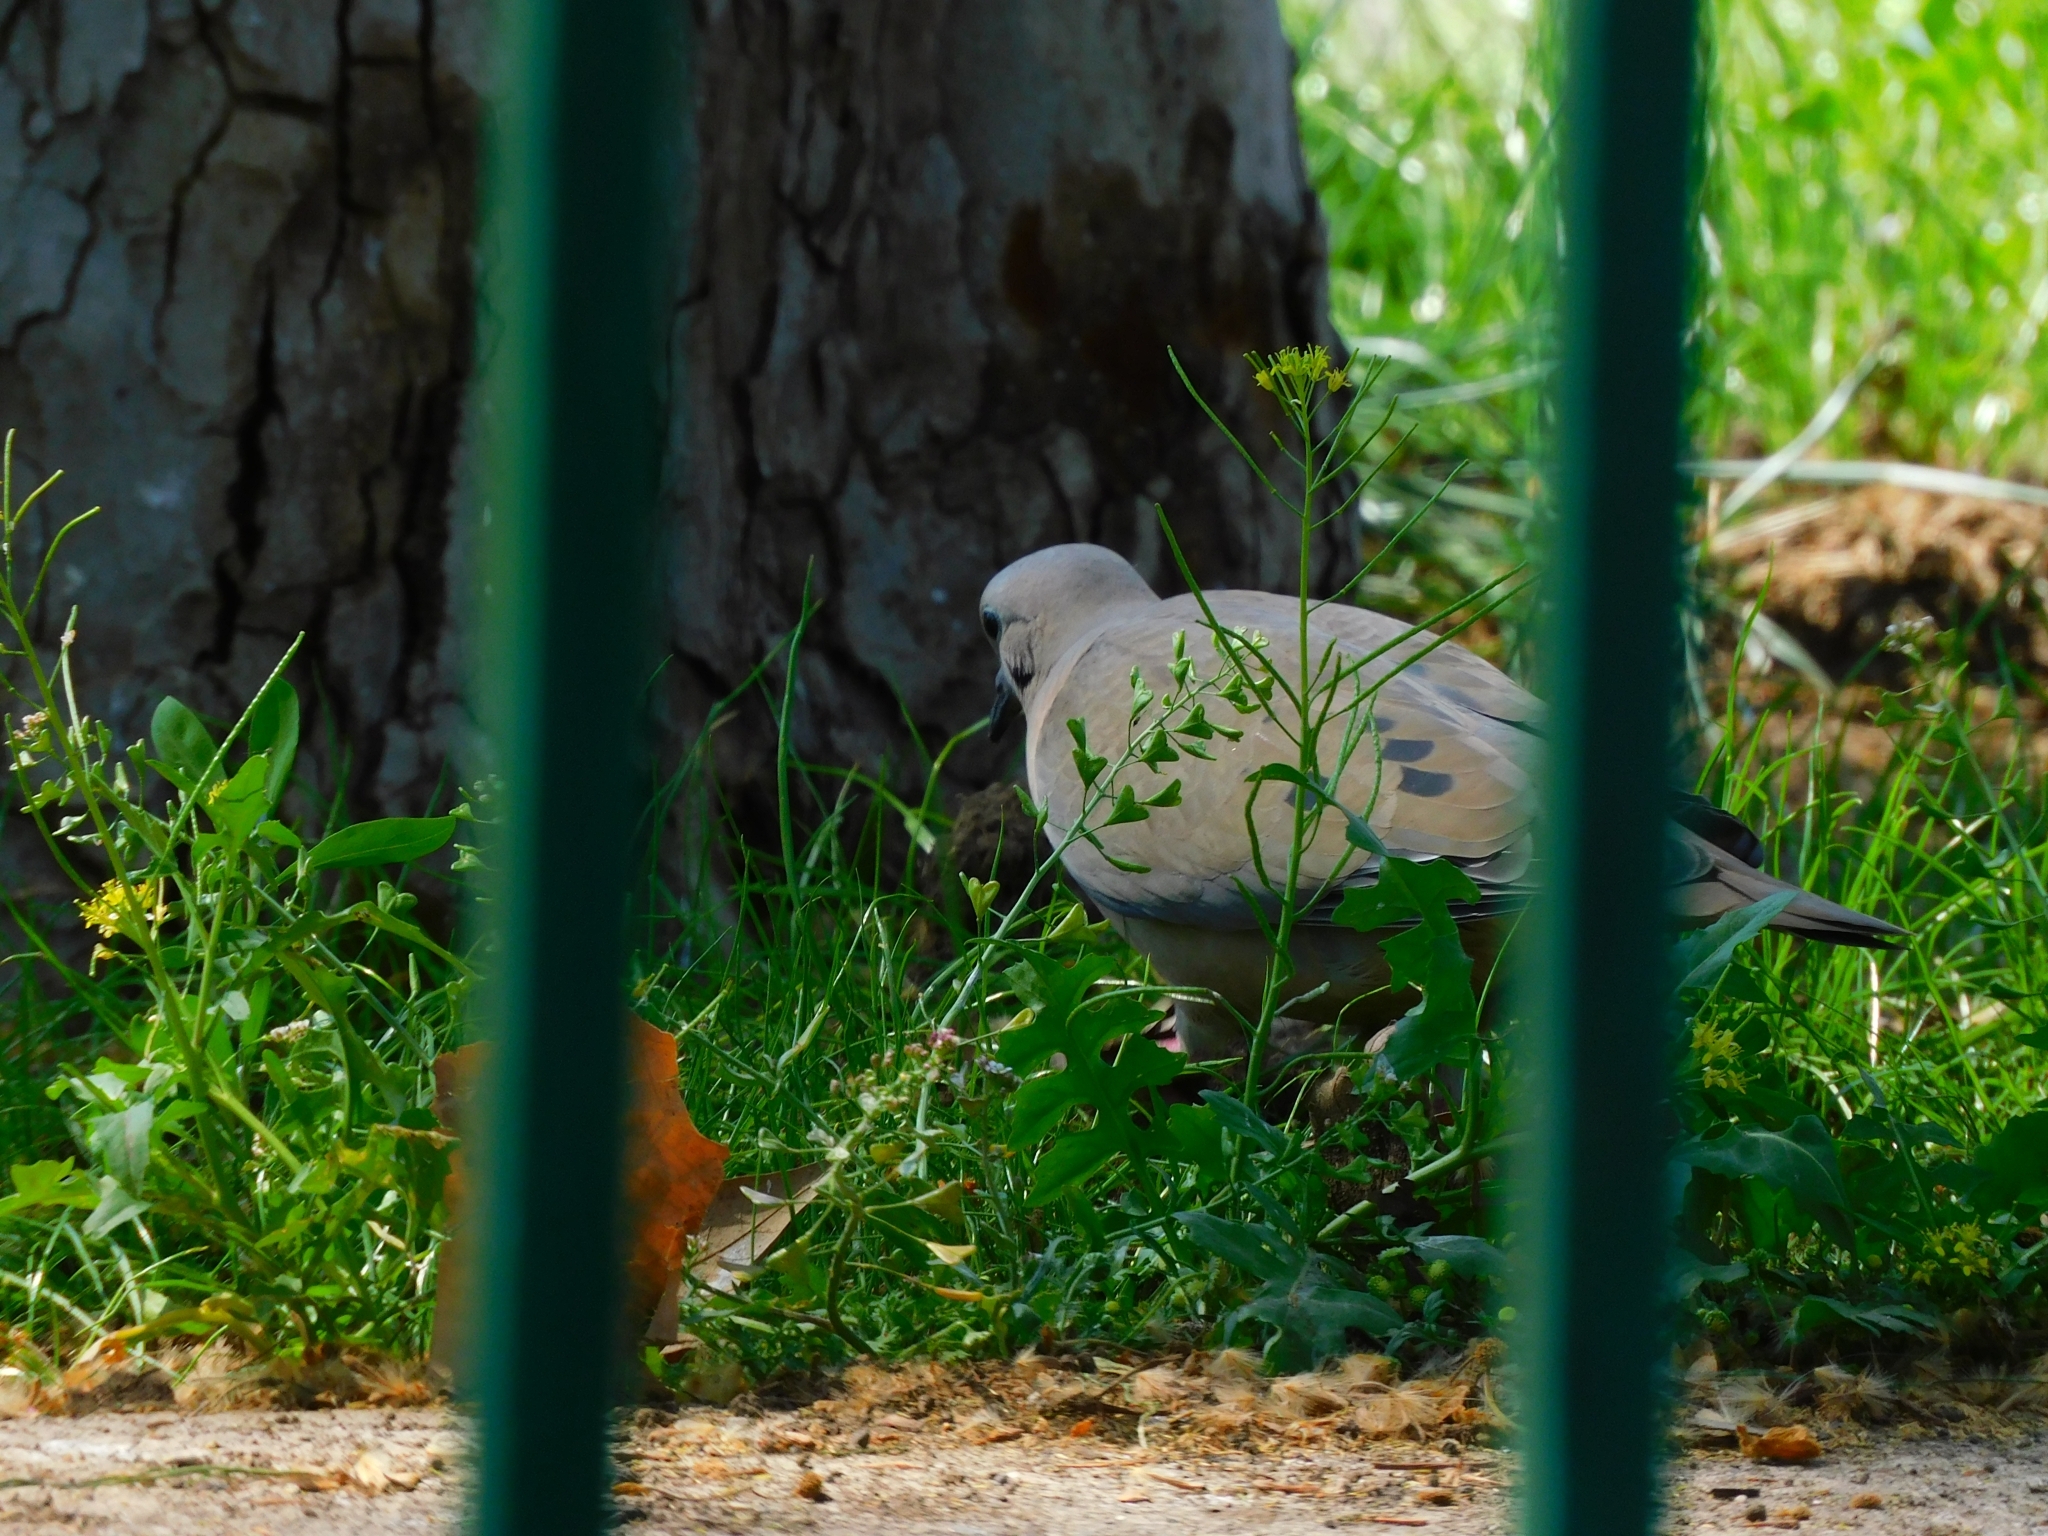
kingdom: Animalia
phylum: Chordata
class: Aves
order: Columbiformes
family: Columbidae
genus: Zenaida
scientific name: Zenaida auriculata
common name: Eared dove
